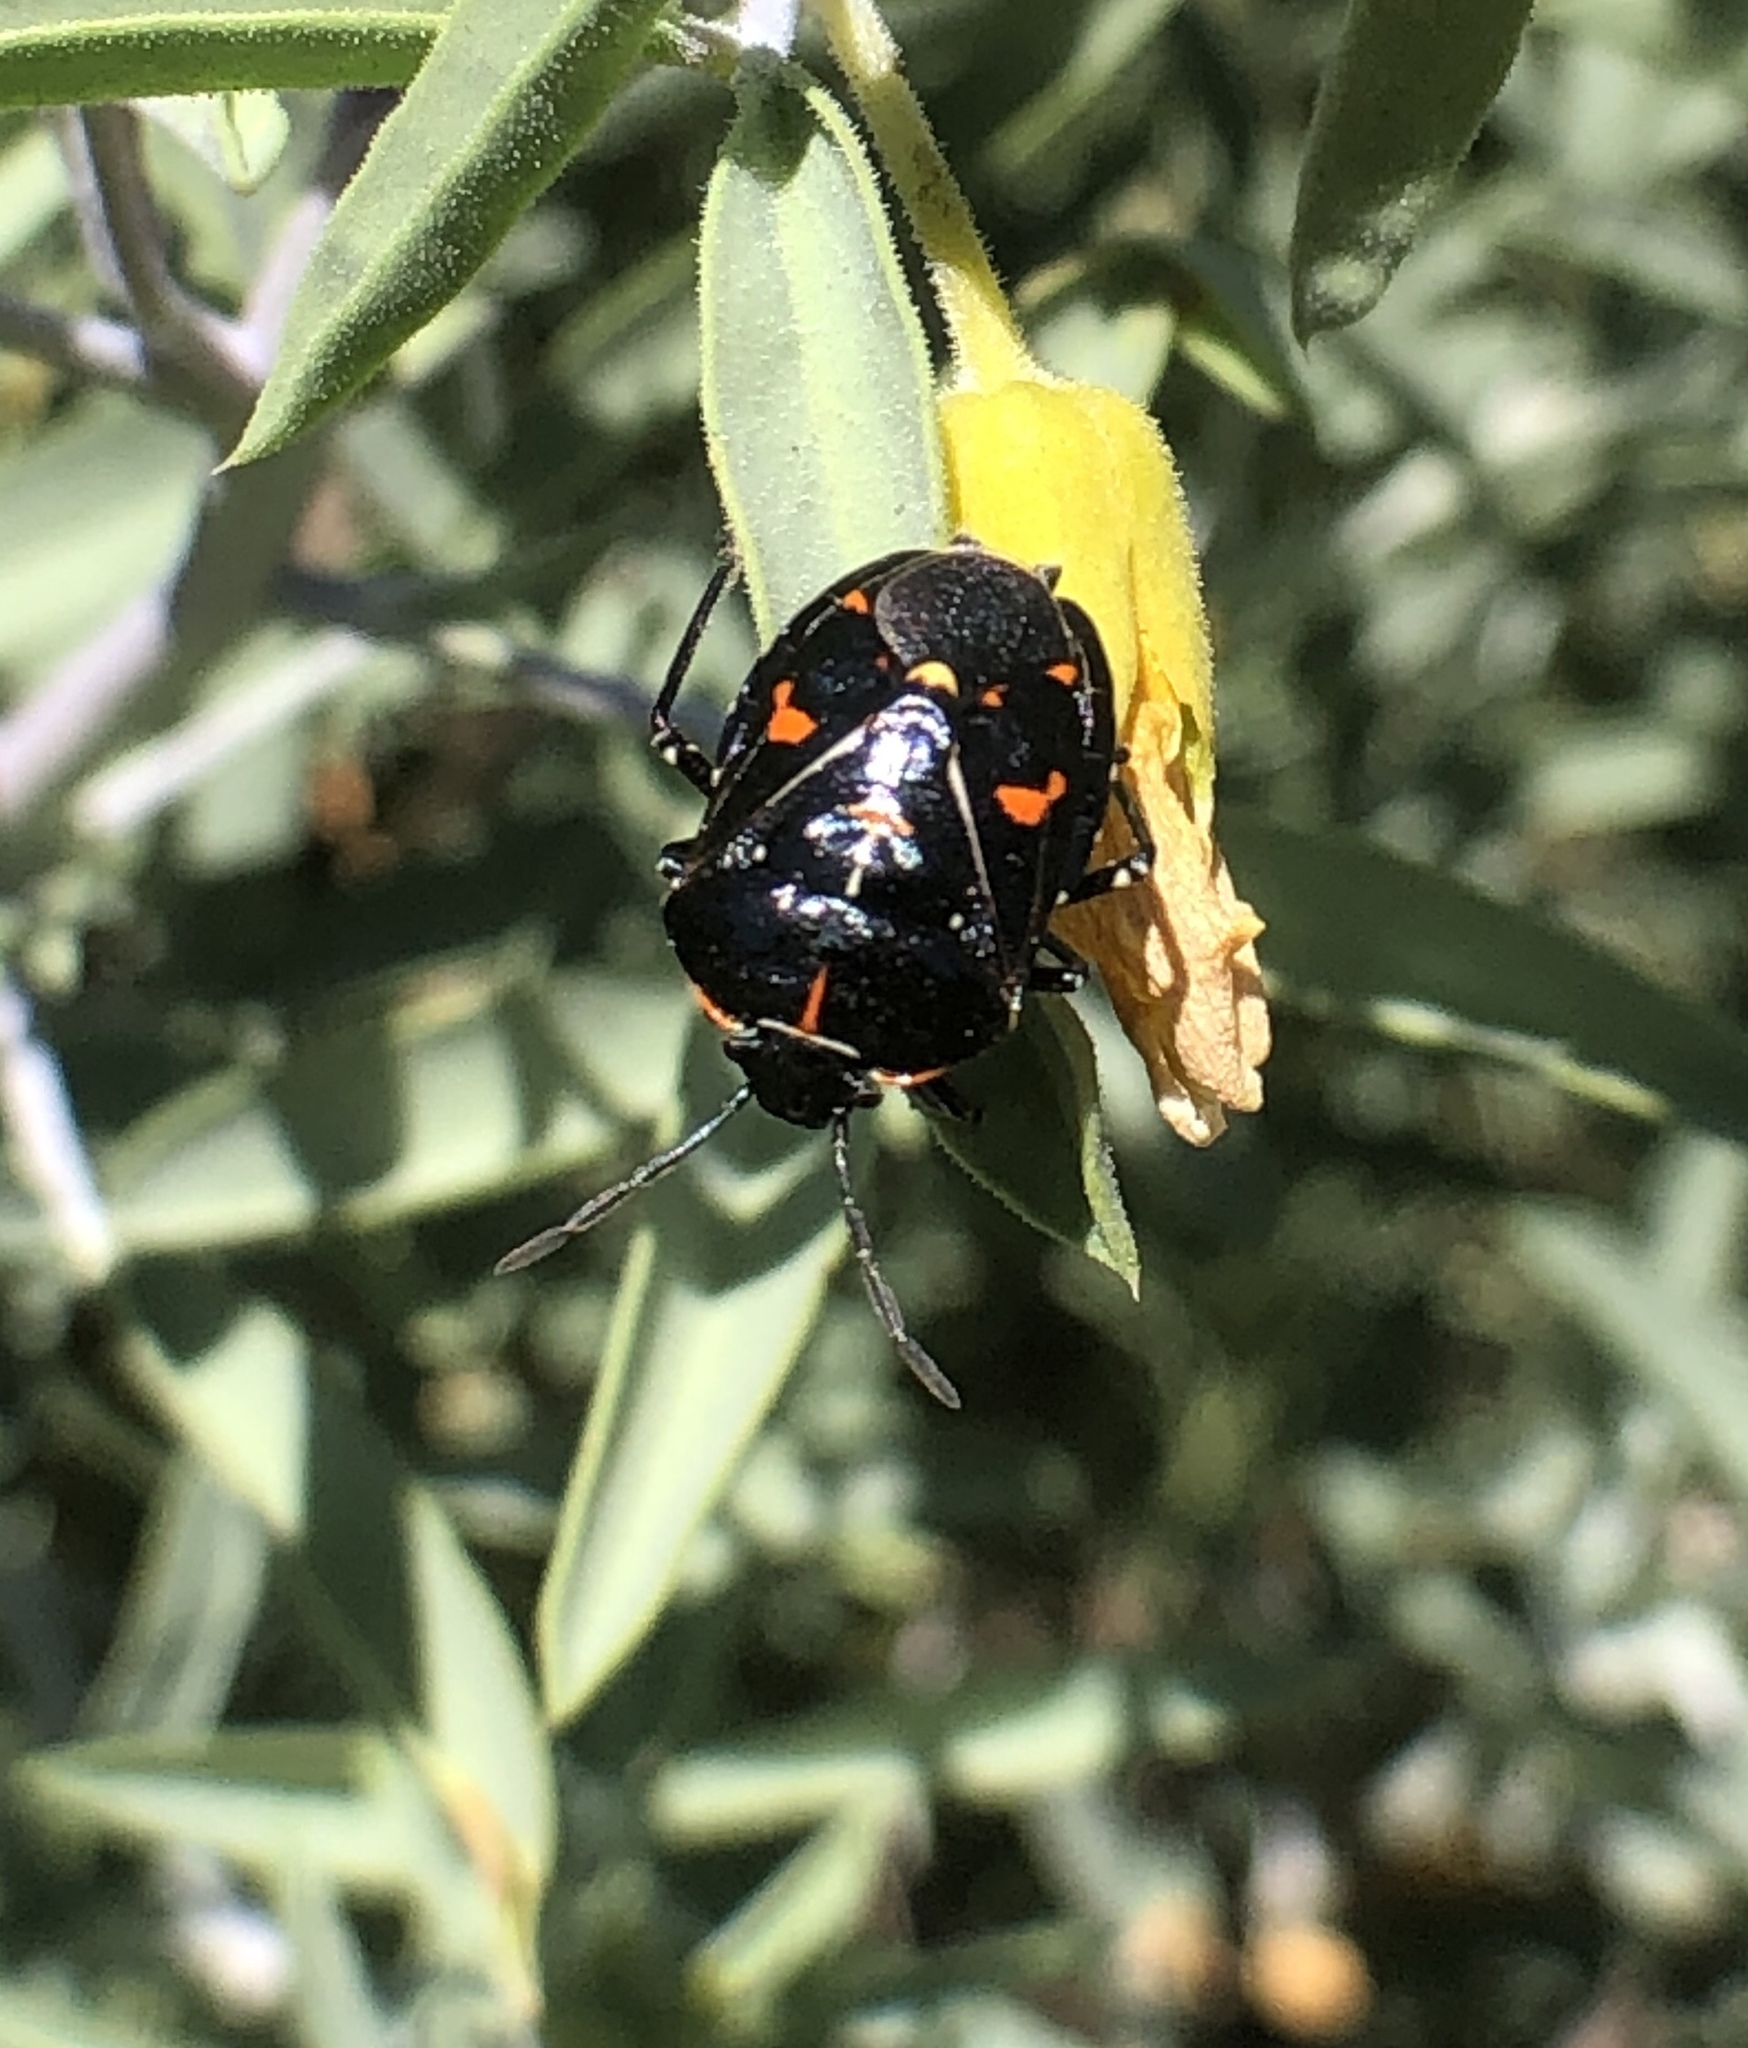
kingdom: Animalia
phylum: Arthropoda
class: Insecta
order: Hemiptera
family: Pentatomidae
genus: Murgantia
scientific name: Murgantia histrionica
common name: Harlequin bug
